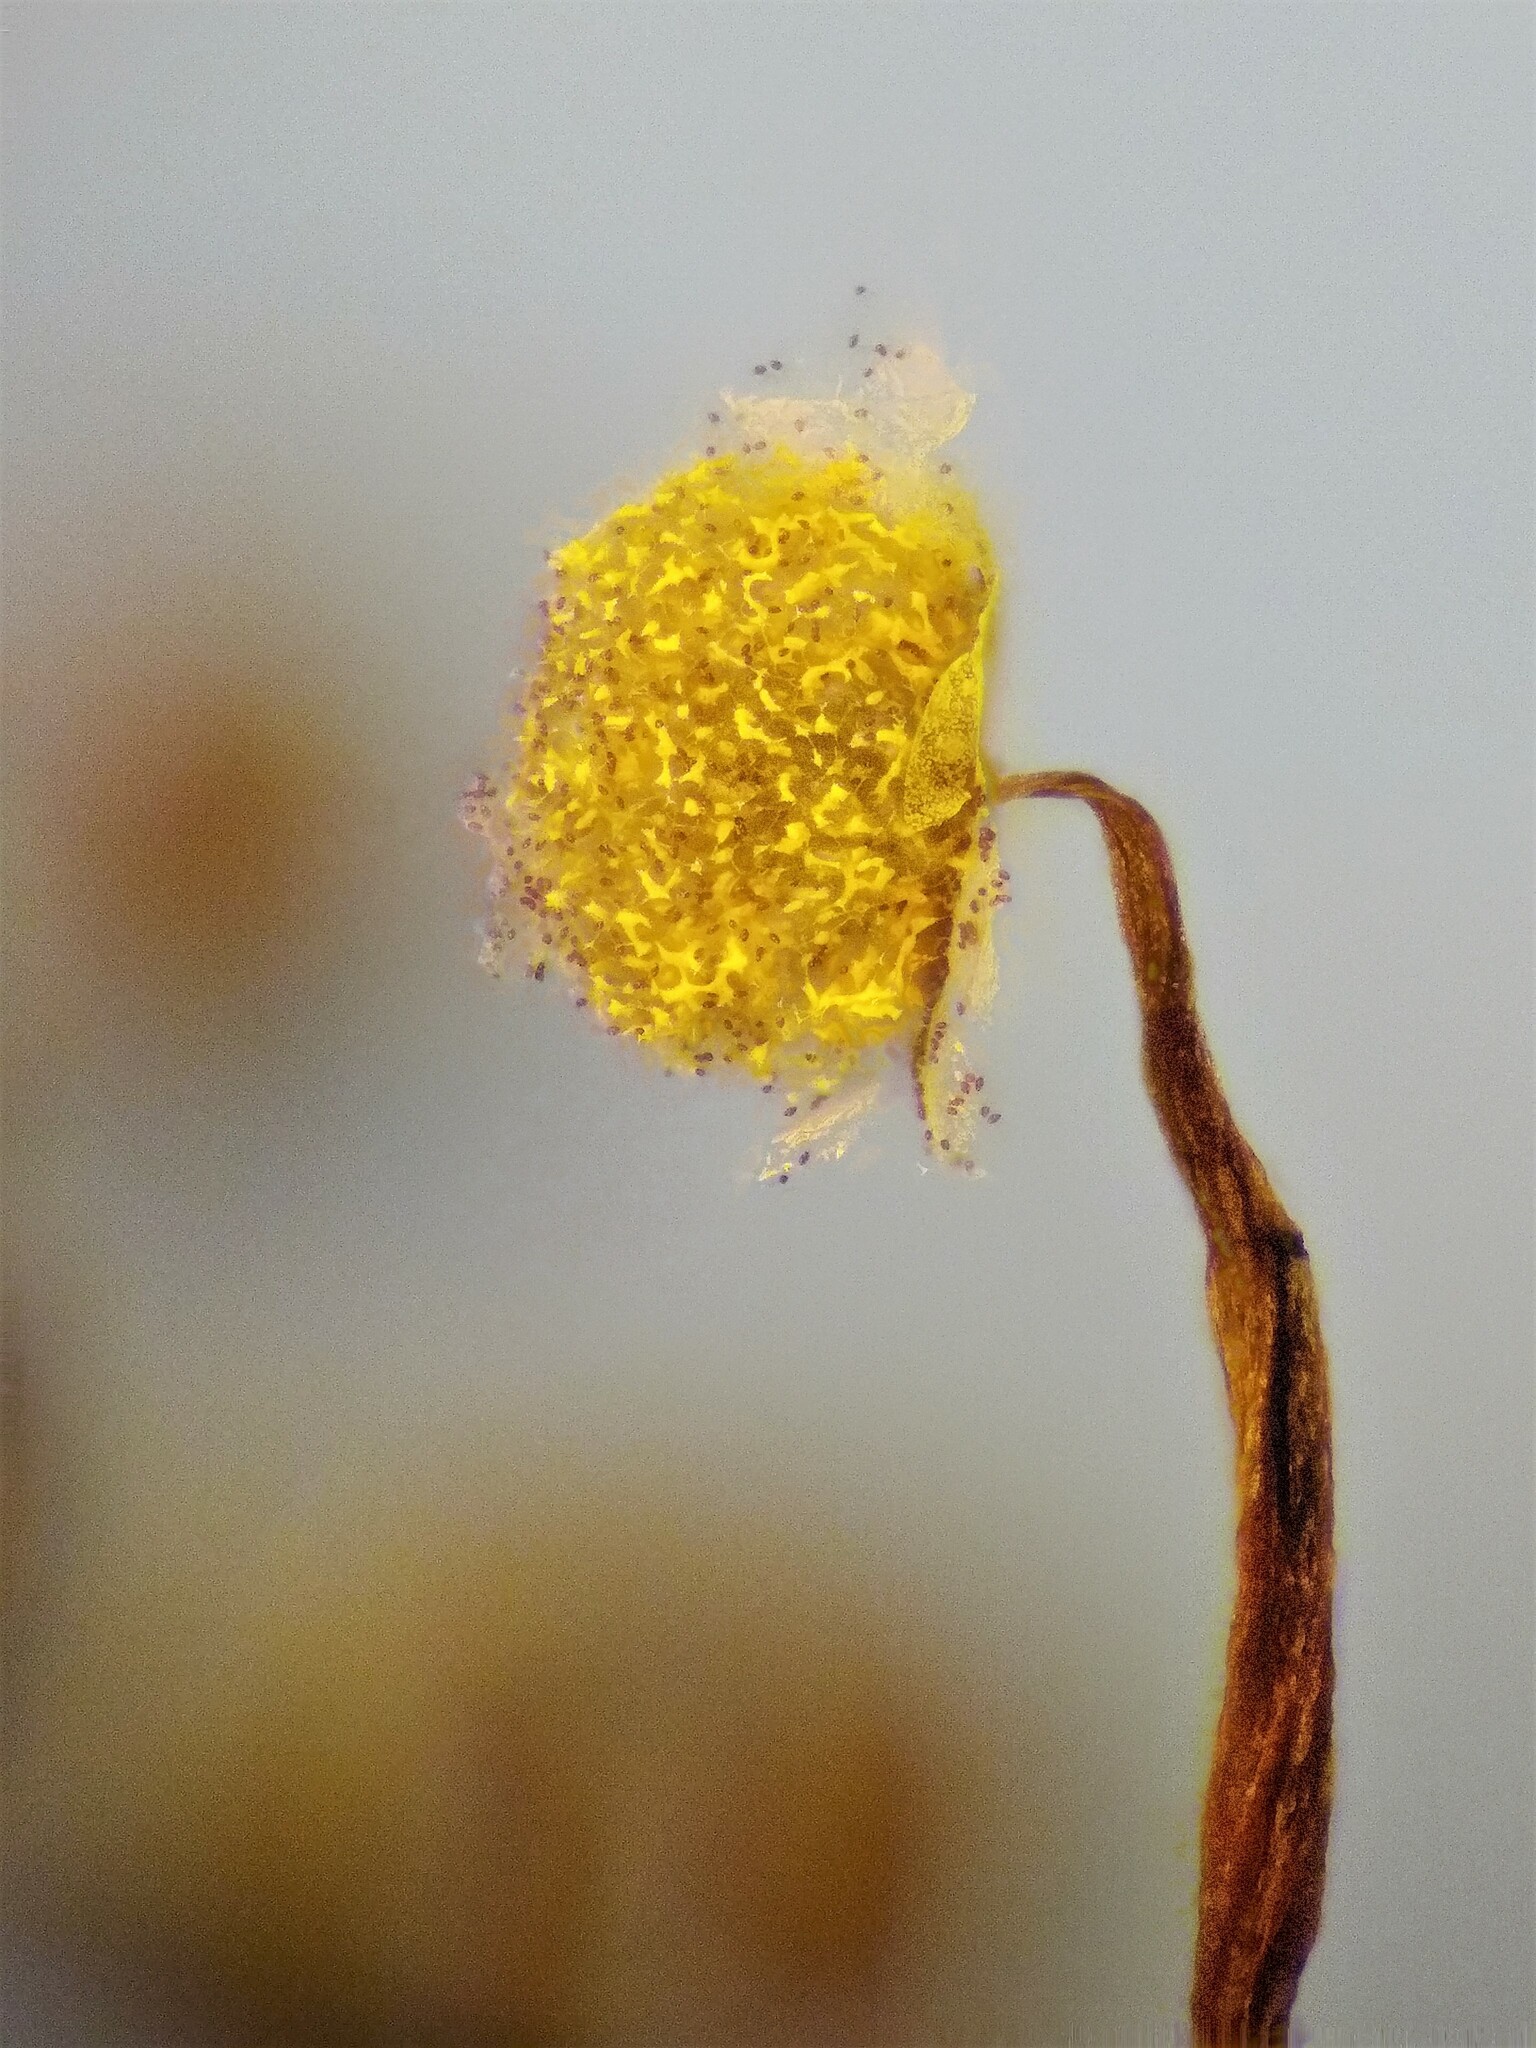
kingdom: Protozoa
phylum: Mycetozoa
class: Myxomycetes
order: Physarales
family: Physaraceae
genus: Physarum
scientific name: Physarum flavicomum
